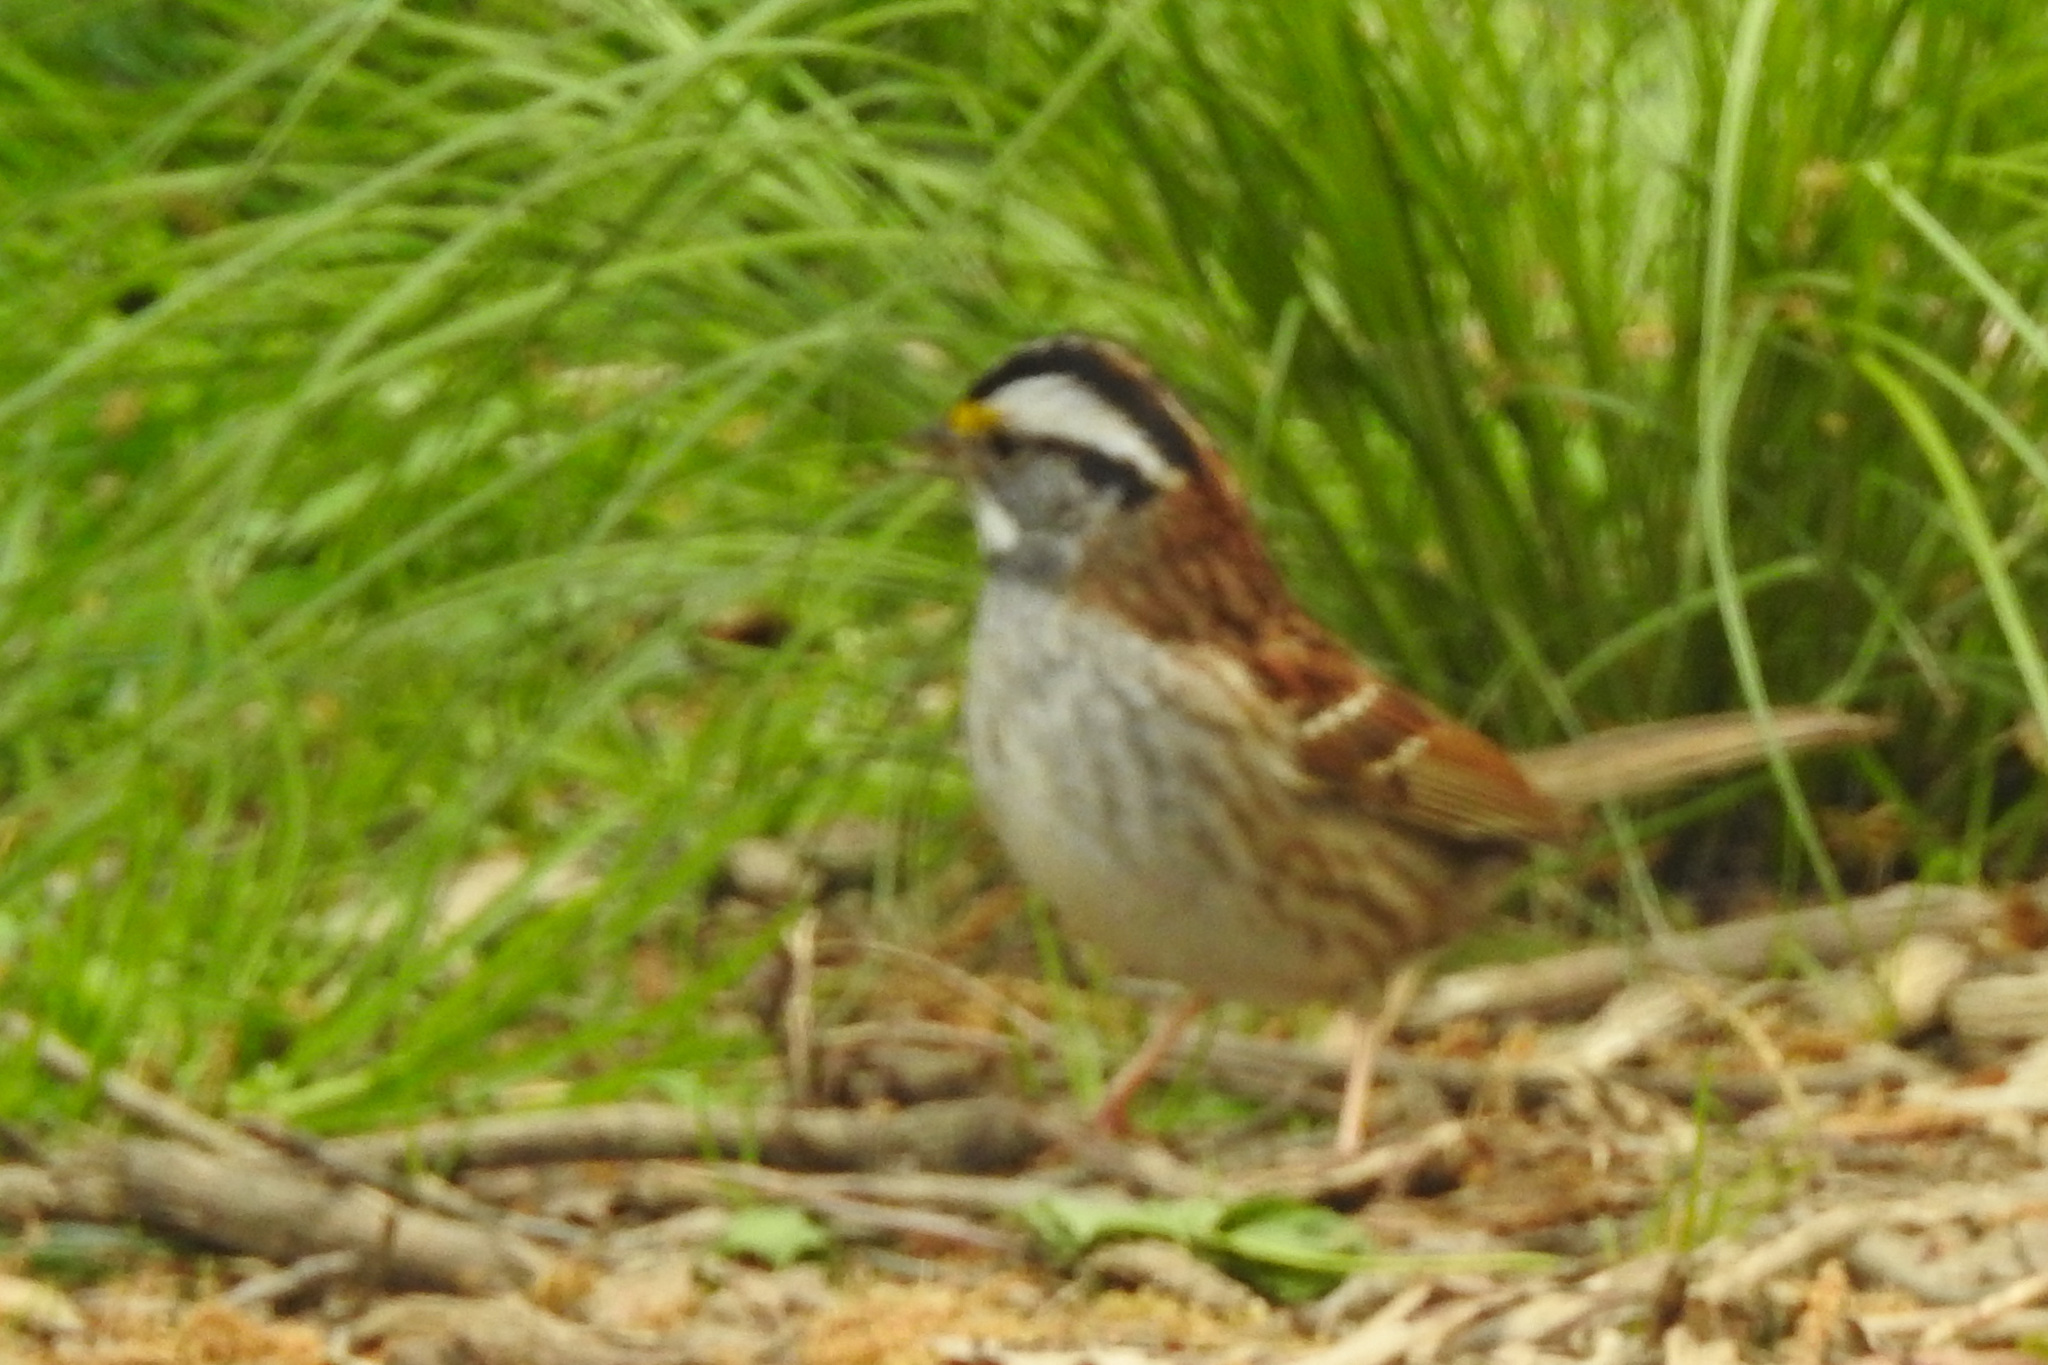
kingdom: Animalia
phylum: Chordata
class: Aves
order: Passeriformes
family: Passerellidae
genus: Zonotrichia
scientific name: Zonotrichia albicollis
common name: White-throated sparrow
